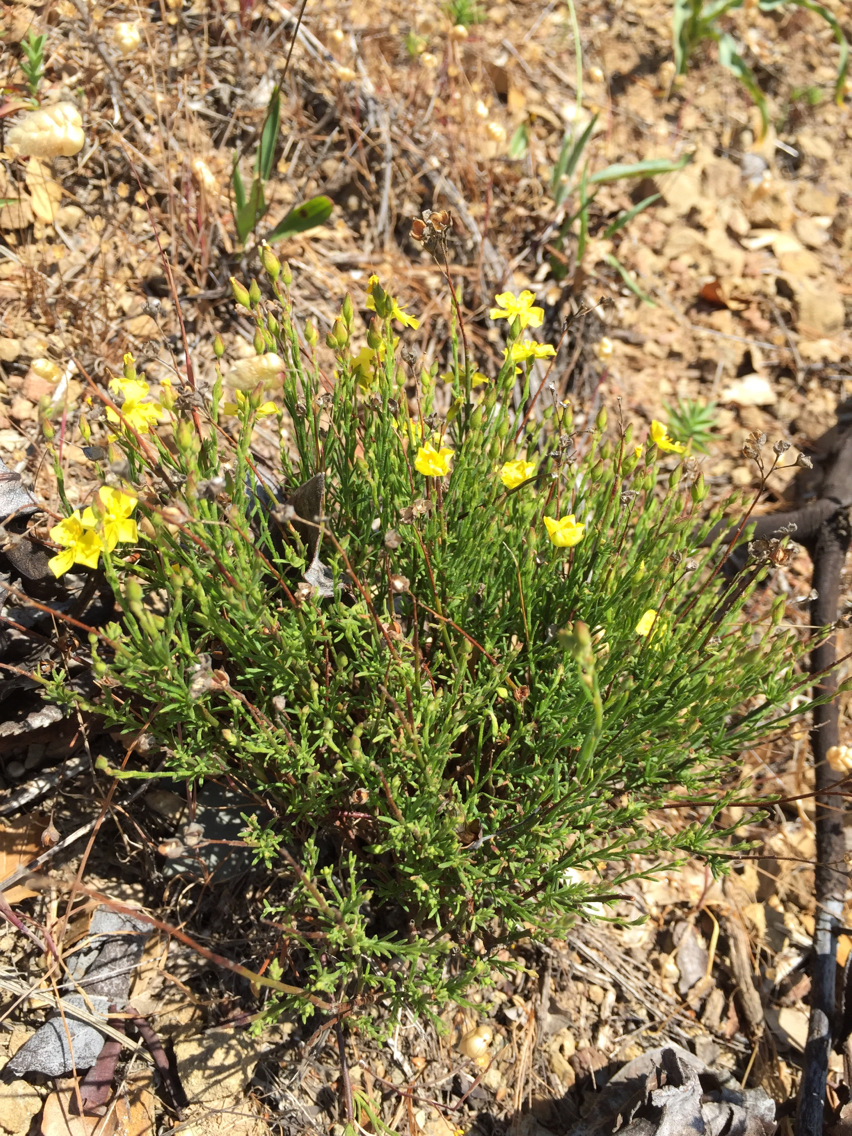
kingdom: Plantae
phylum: Tracheophyta
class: Magnoliopsida
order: Malvales
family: Cistaceae
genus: Crocanthemum
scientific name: Crocanthemum scoparium
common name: Broom-rose
